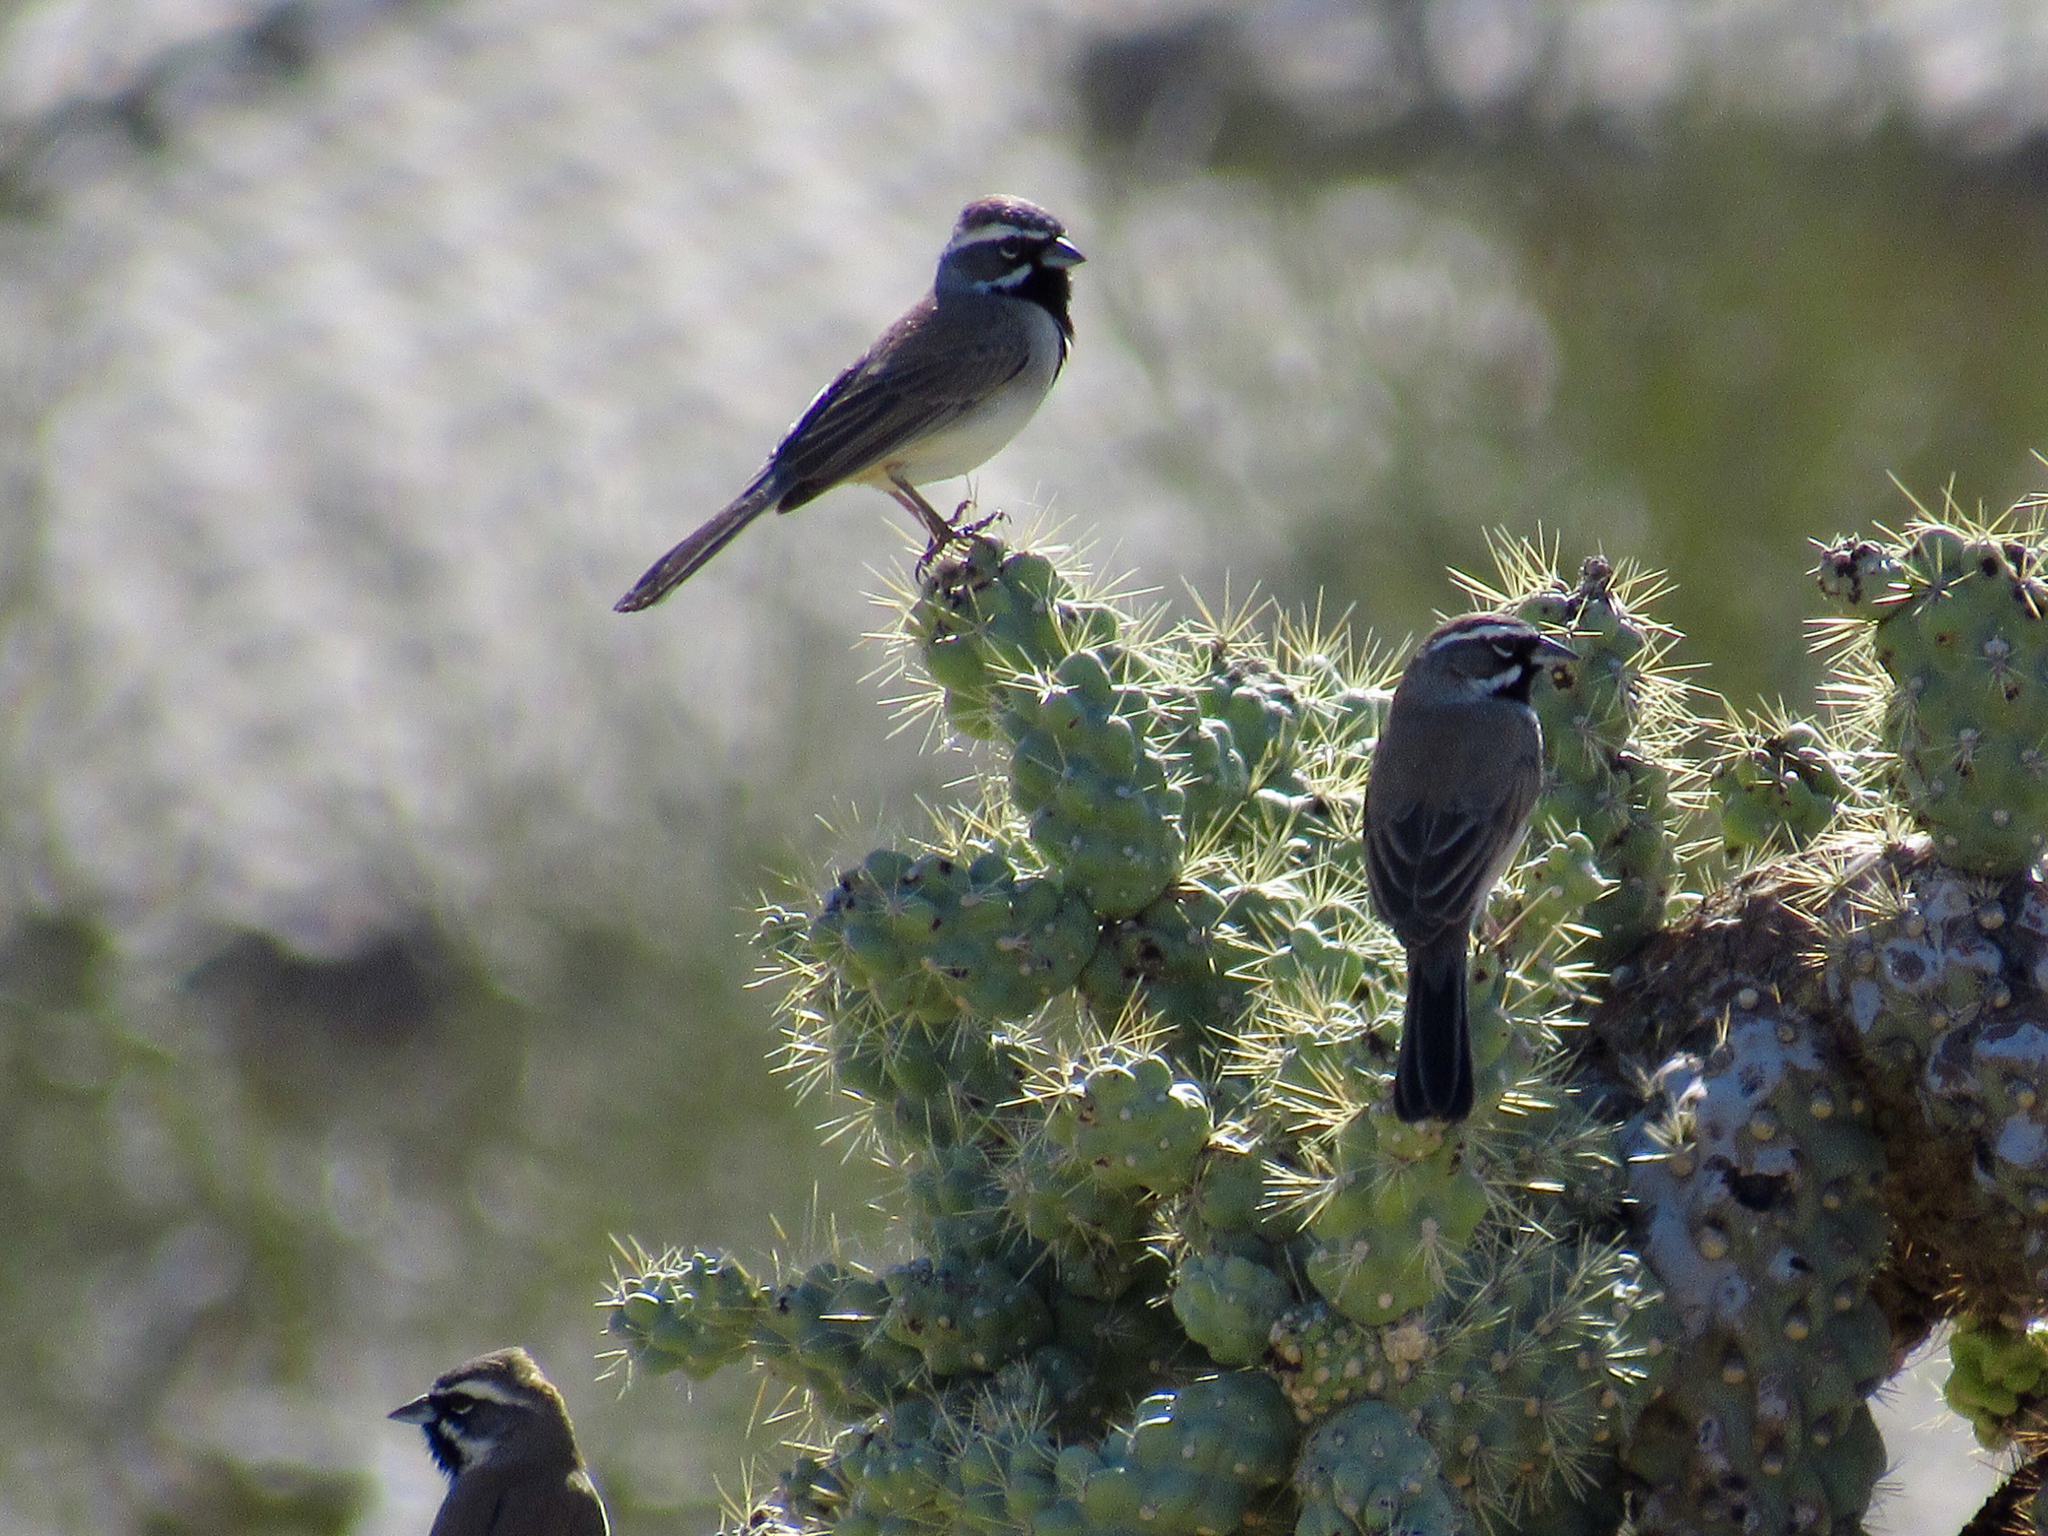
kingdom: Animalia
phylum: Chordata
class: Aves
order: Passeriformes
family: Passerellidae
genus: Amphispiza
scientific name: Amphispiza bilineata
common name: Black-throated sparrow
